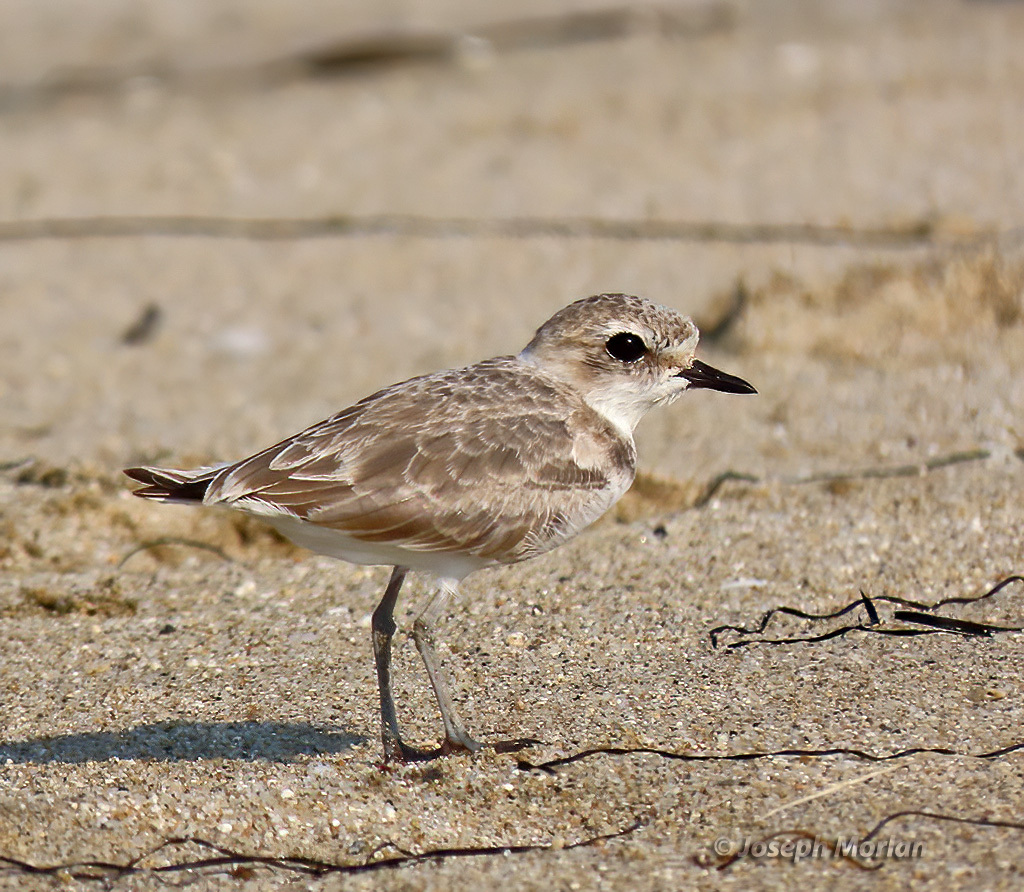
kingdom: Animalia
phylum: Chordata
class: Aves
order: Charadriiformes
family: Charadriidae
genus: Anarhynchus
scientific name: Anarhynchus
